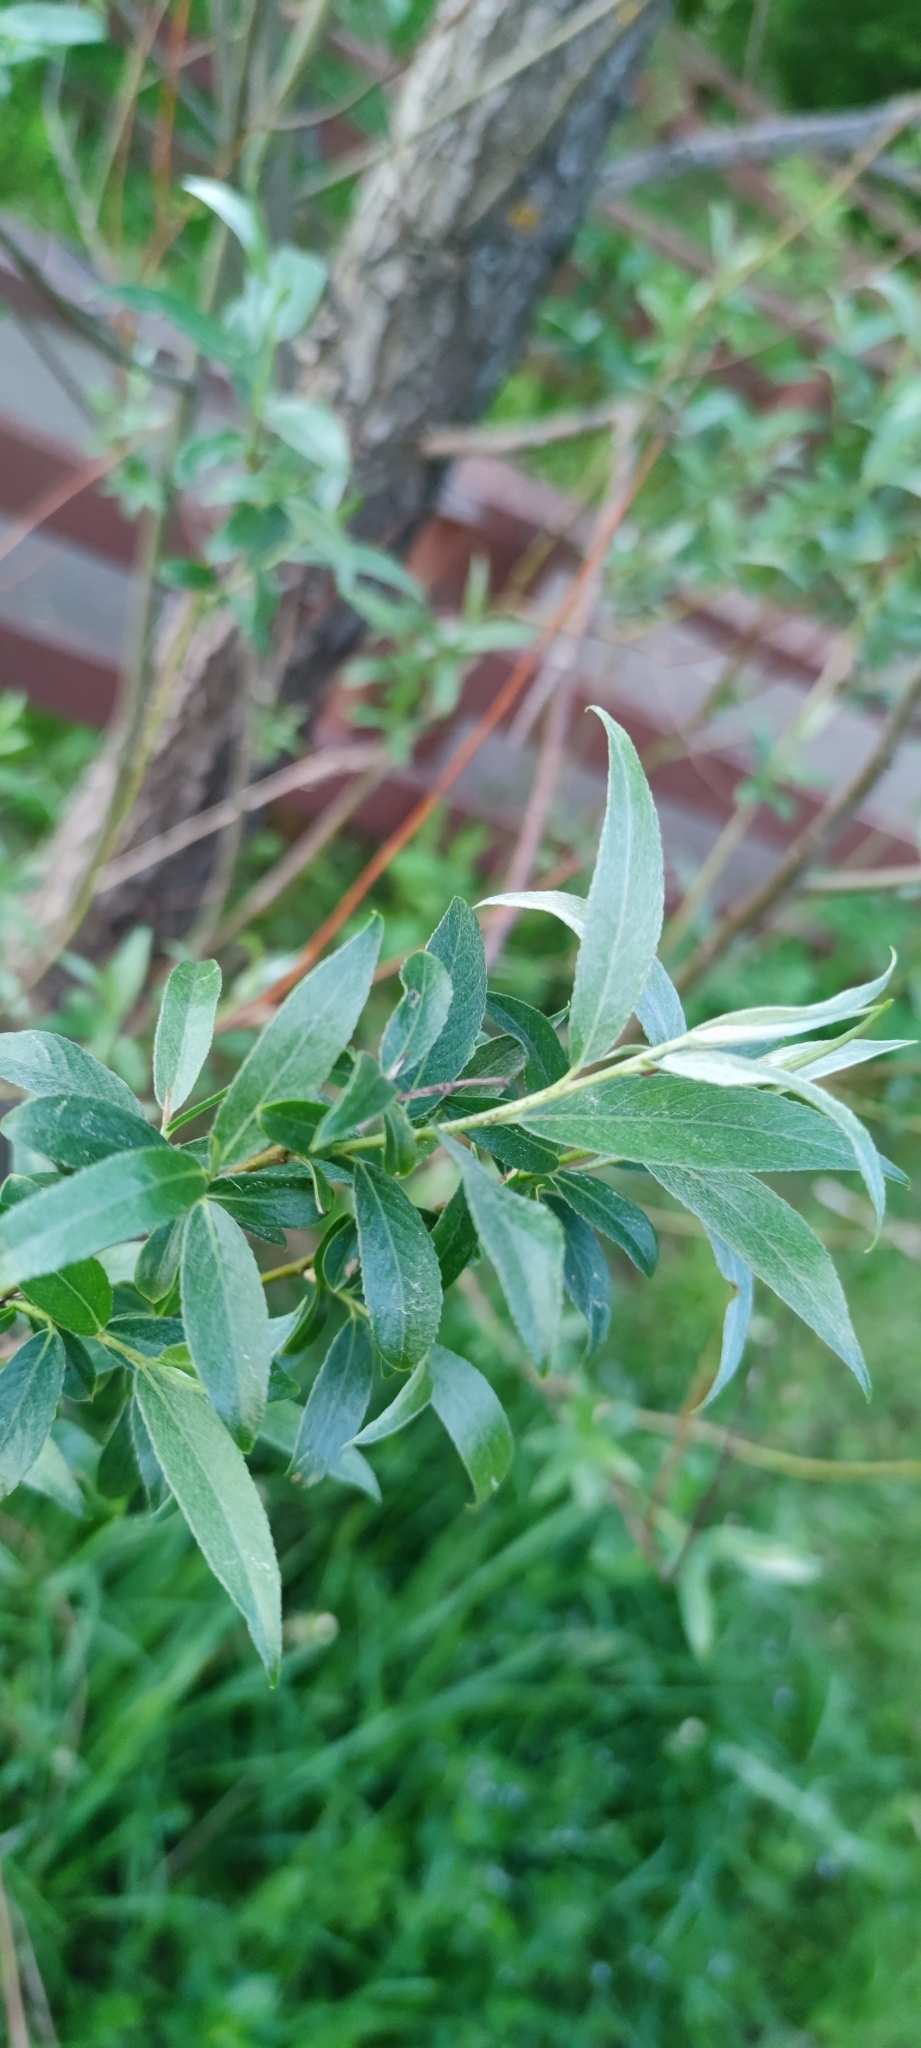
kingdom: Plantae
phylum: Tracheophyta
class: Magnoliopsida
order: Malpighiales
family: Salicaceae
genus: Salix
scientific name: Salix alba
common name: White willow
